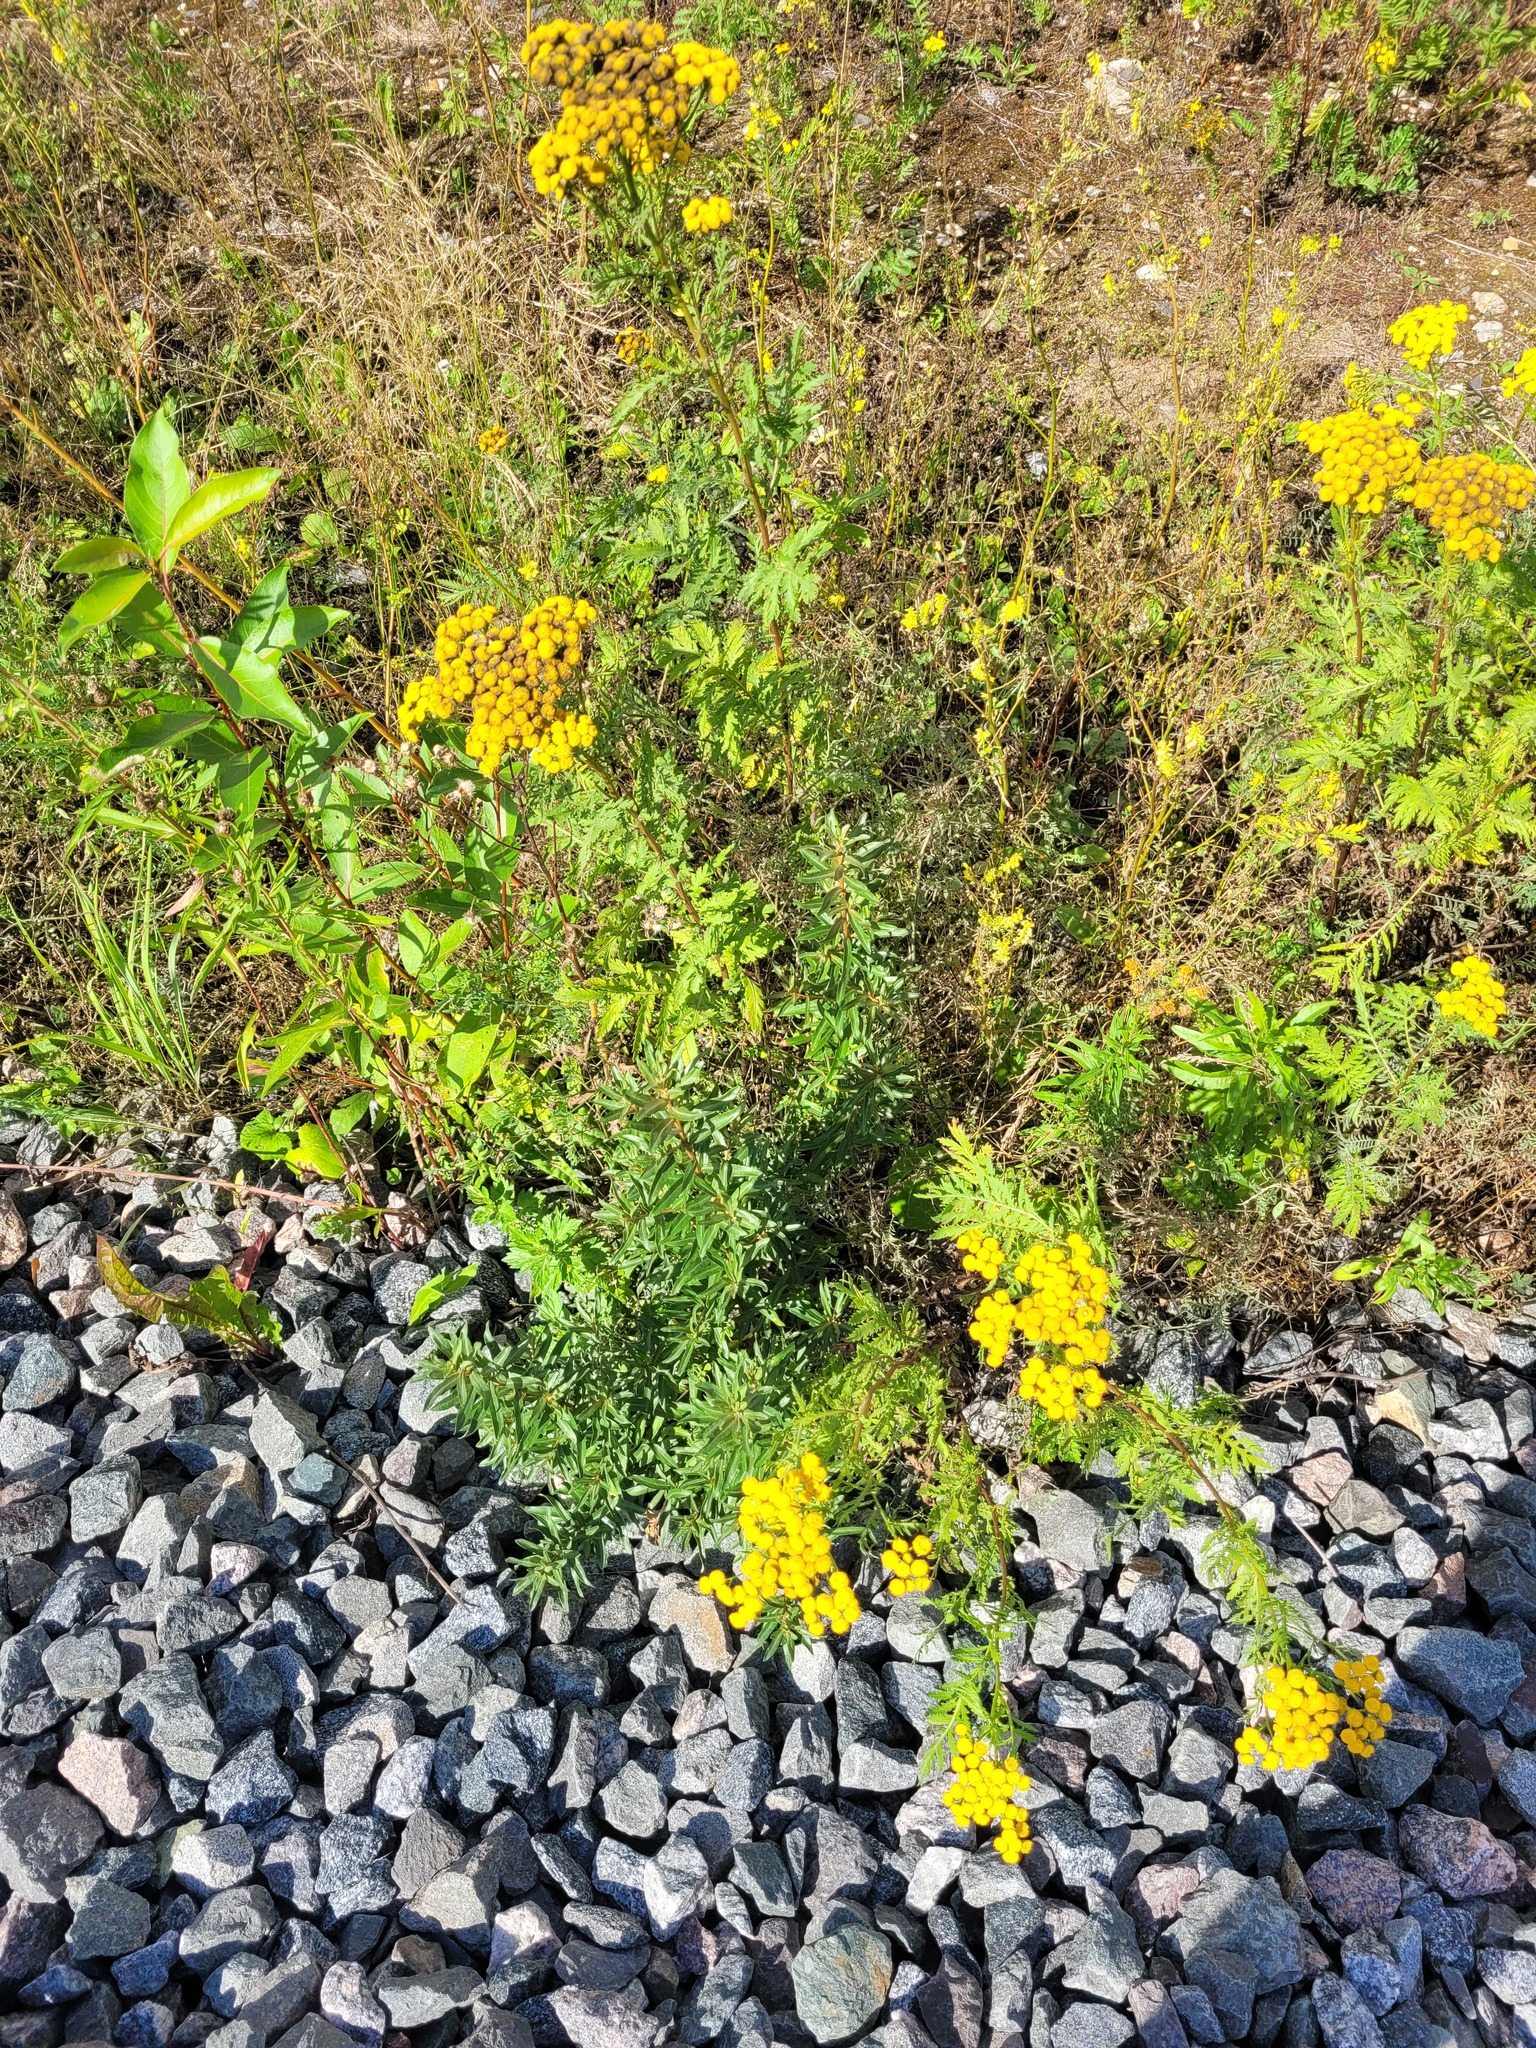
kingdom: Plantae
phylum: Tracheophyta
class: Magnoliopsida
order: Rosales
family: Elaeagnaceae
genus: Hippophae
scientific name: Hippophae rhamnoides
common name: Sea-buckthorn
